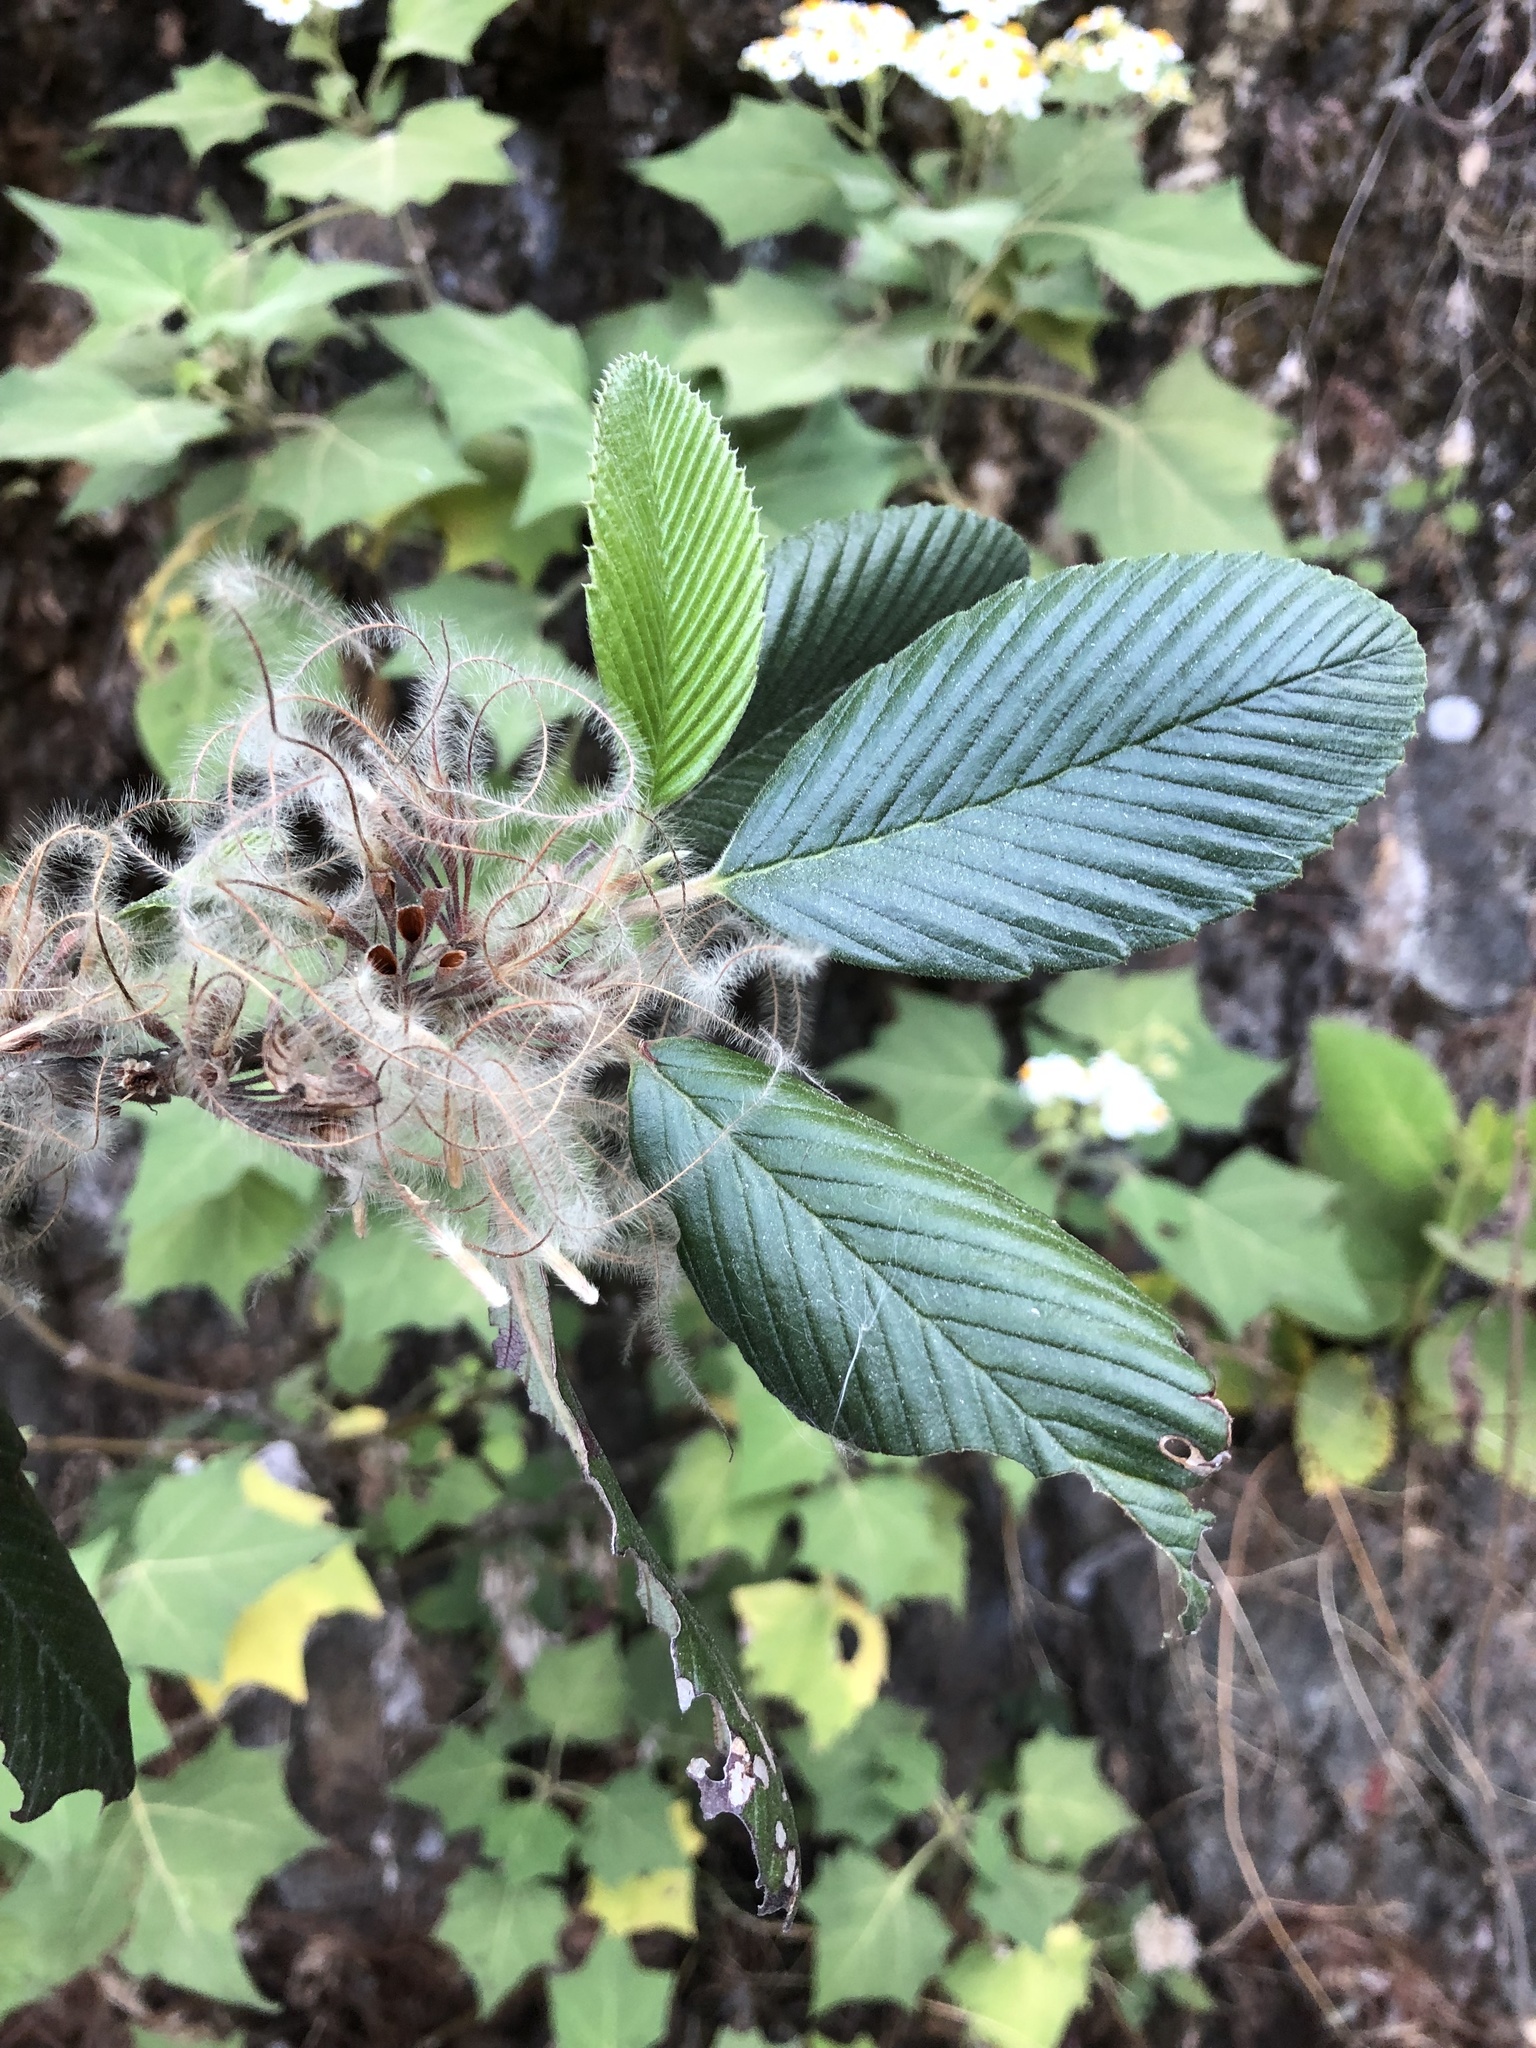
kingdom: Plantae
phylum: Tracheophyta
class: Magnoliopsida
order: Rosales
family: Rosaceae
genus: Cercocarpus
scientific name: Cercocarpus macrophyllus
